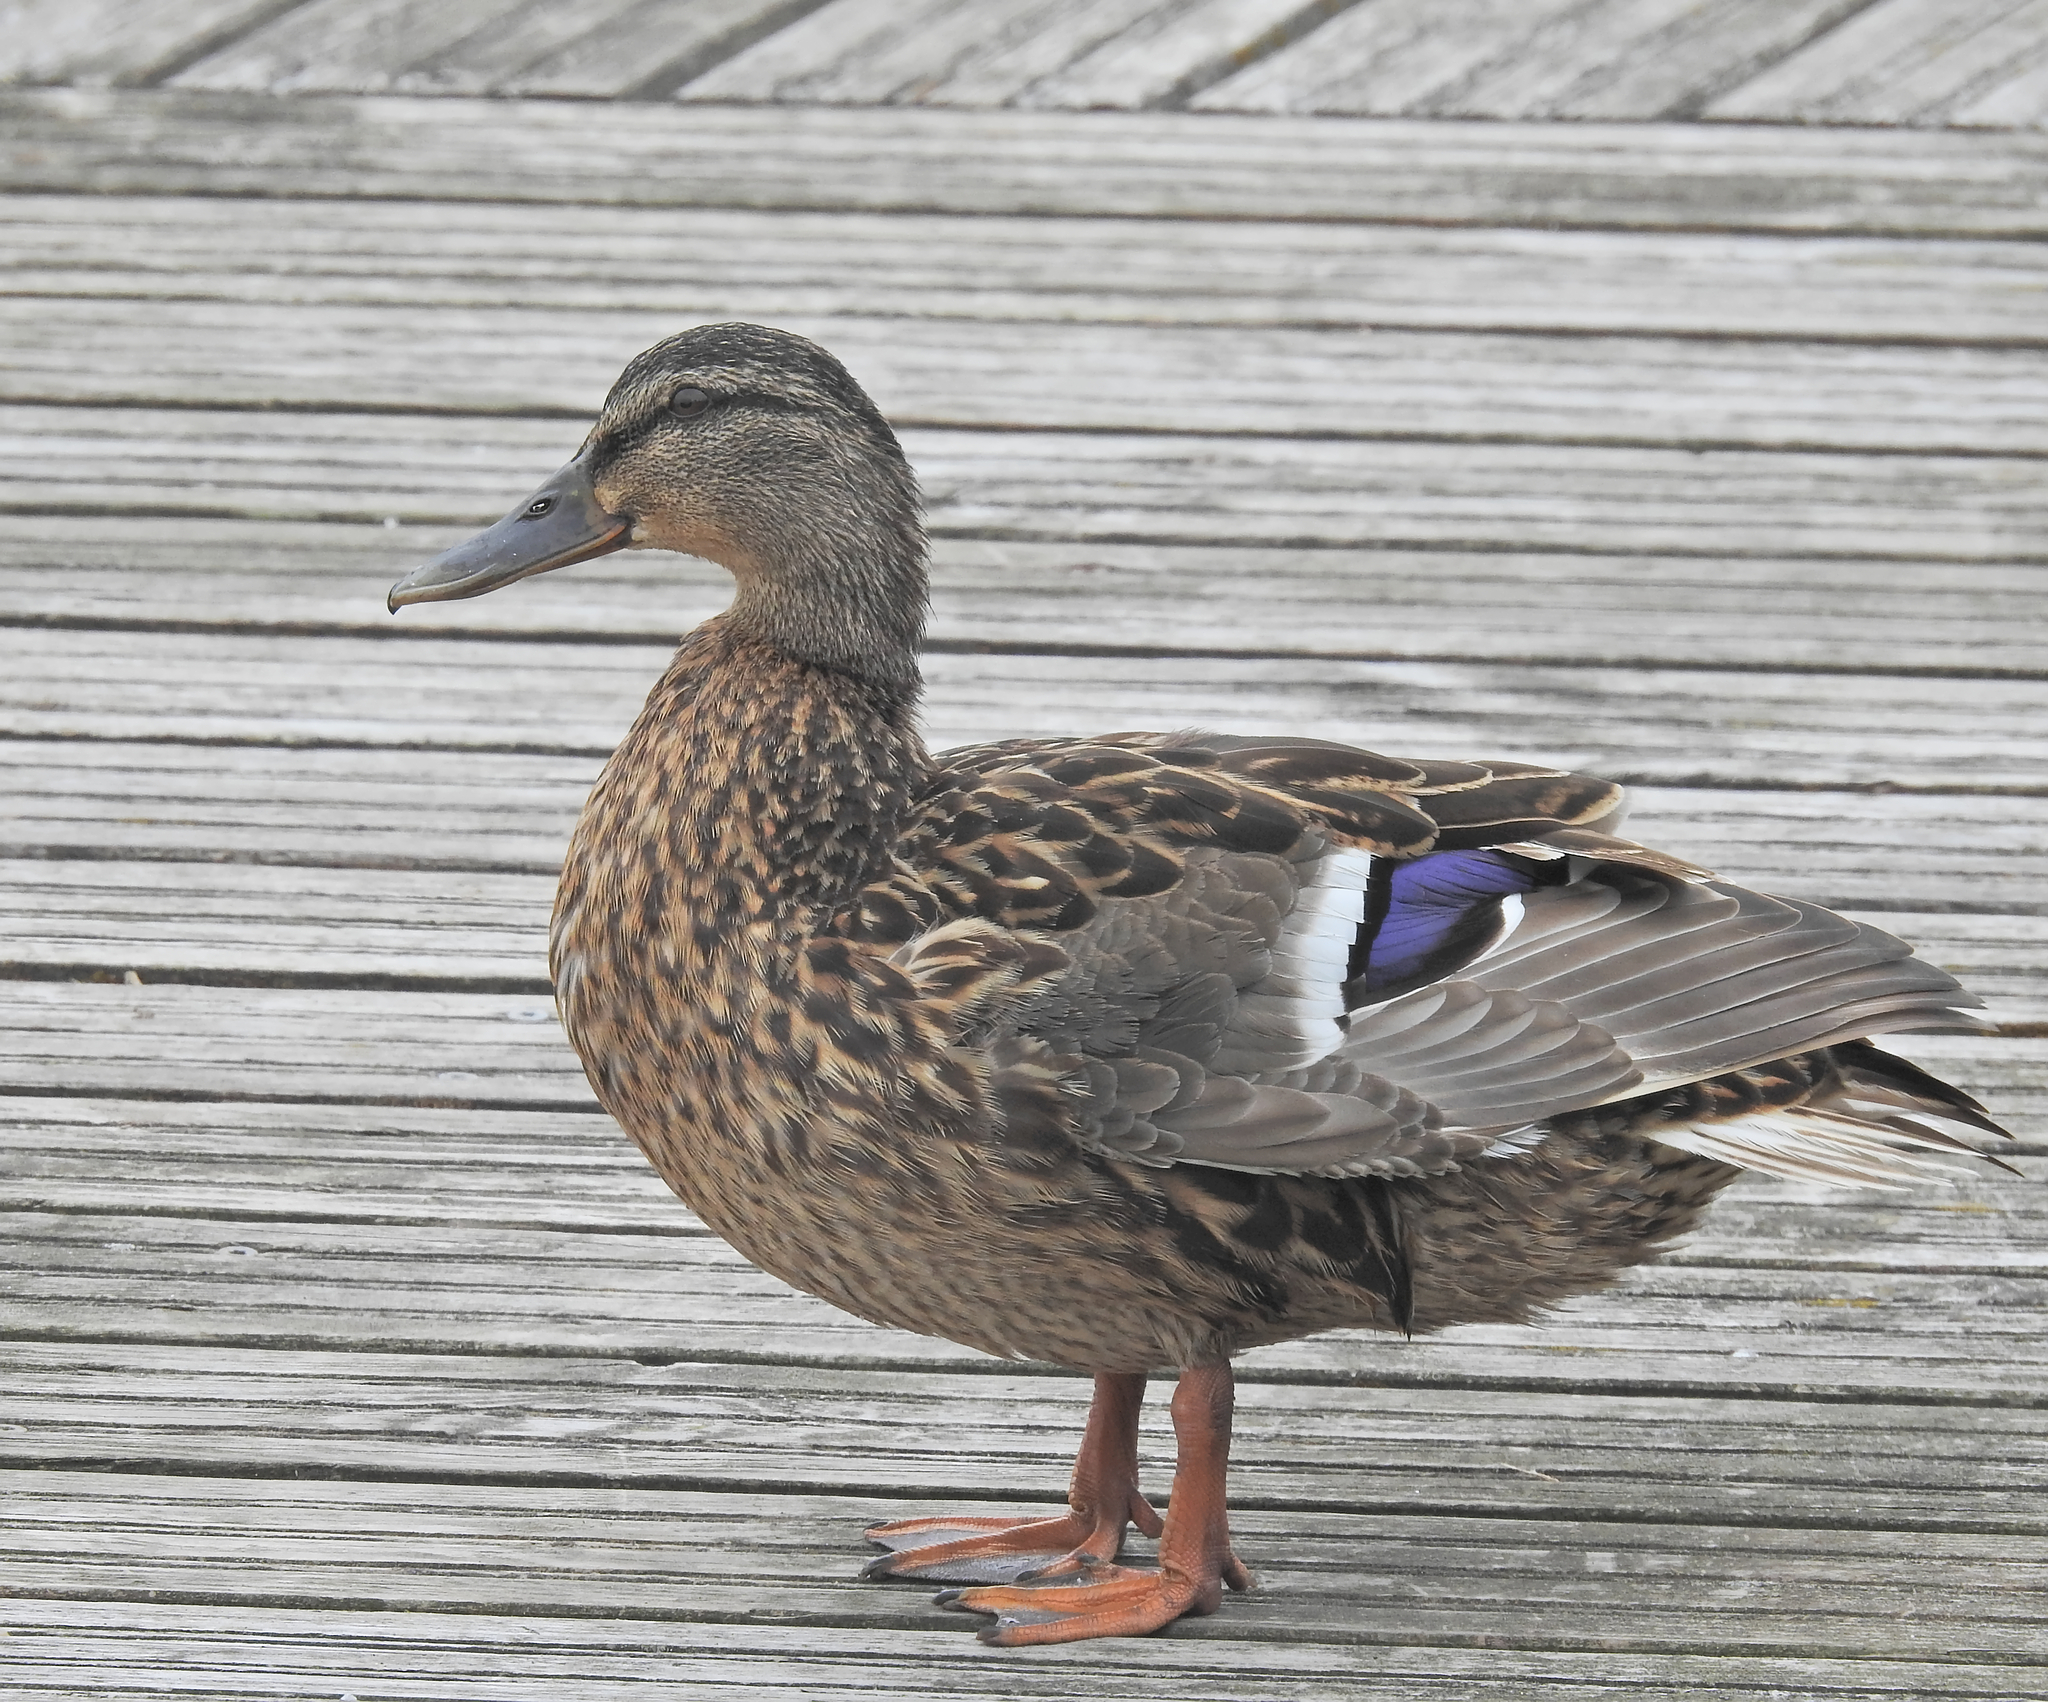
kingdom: Animalia
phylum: Chordata
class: Aves
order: Anseriformes
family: Anatidae
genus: Anas
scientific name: Anas platyrhynchos
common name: Mallard
